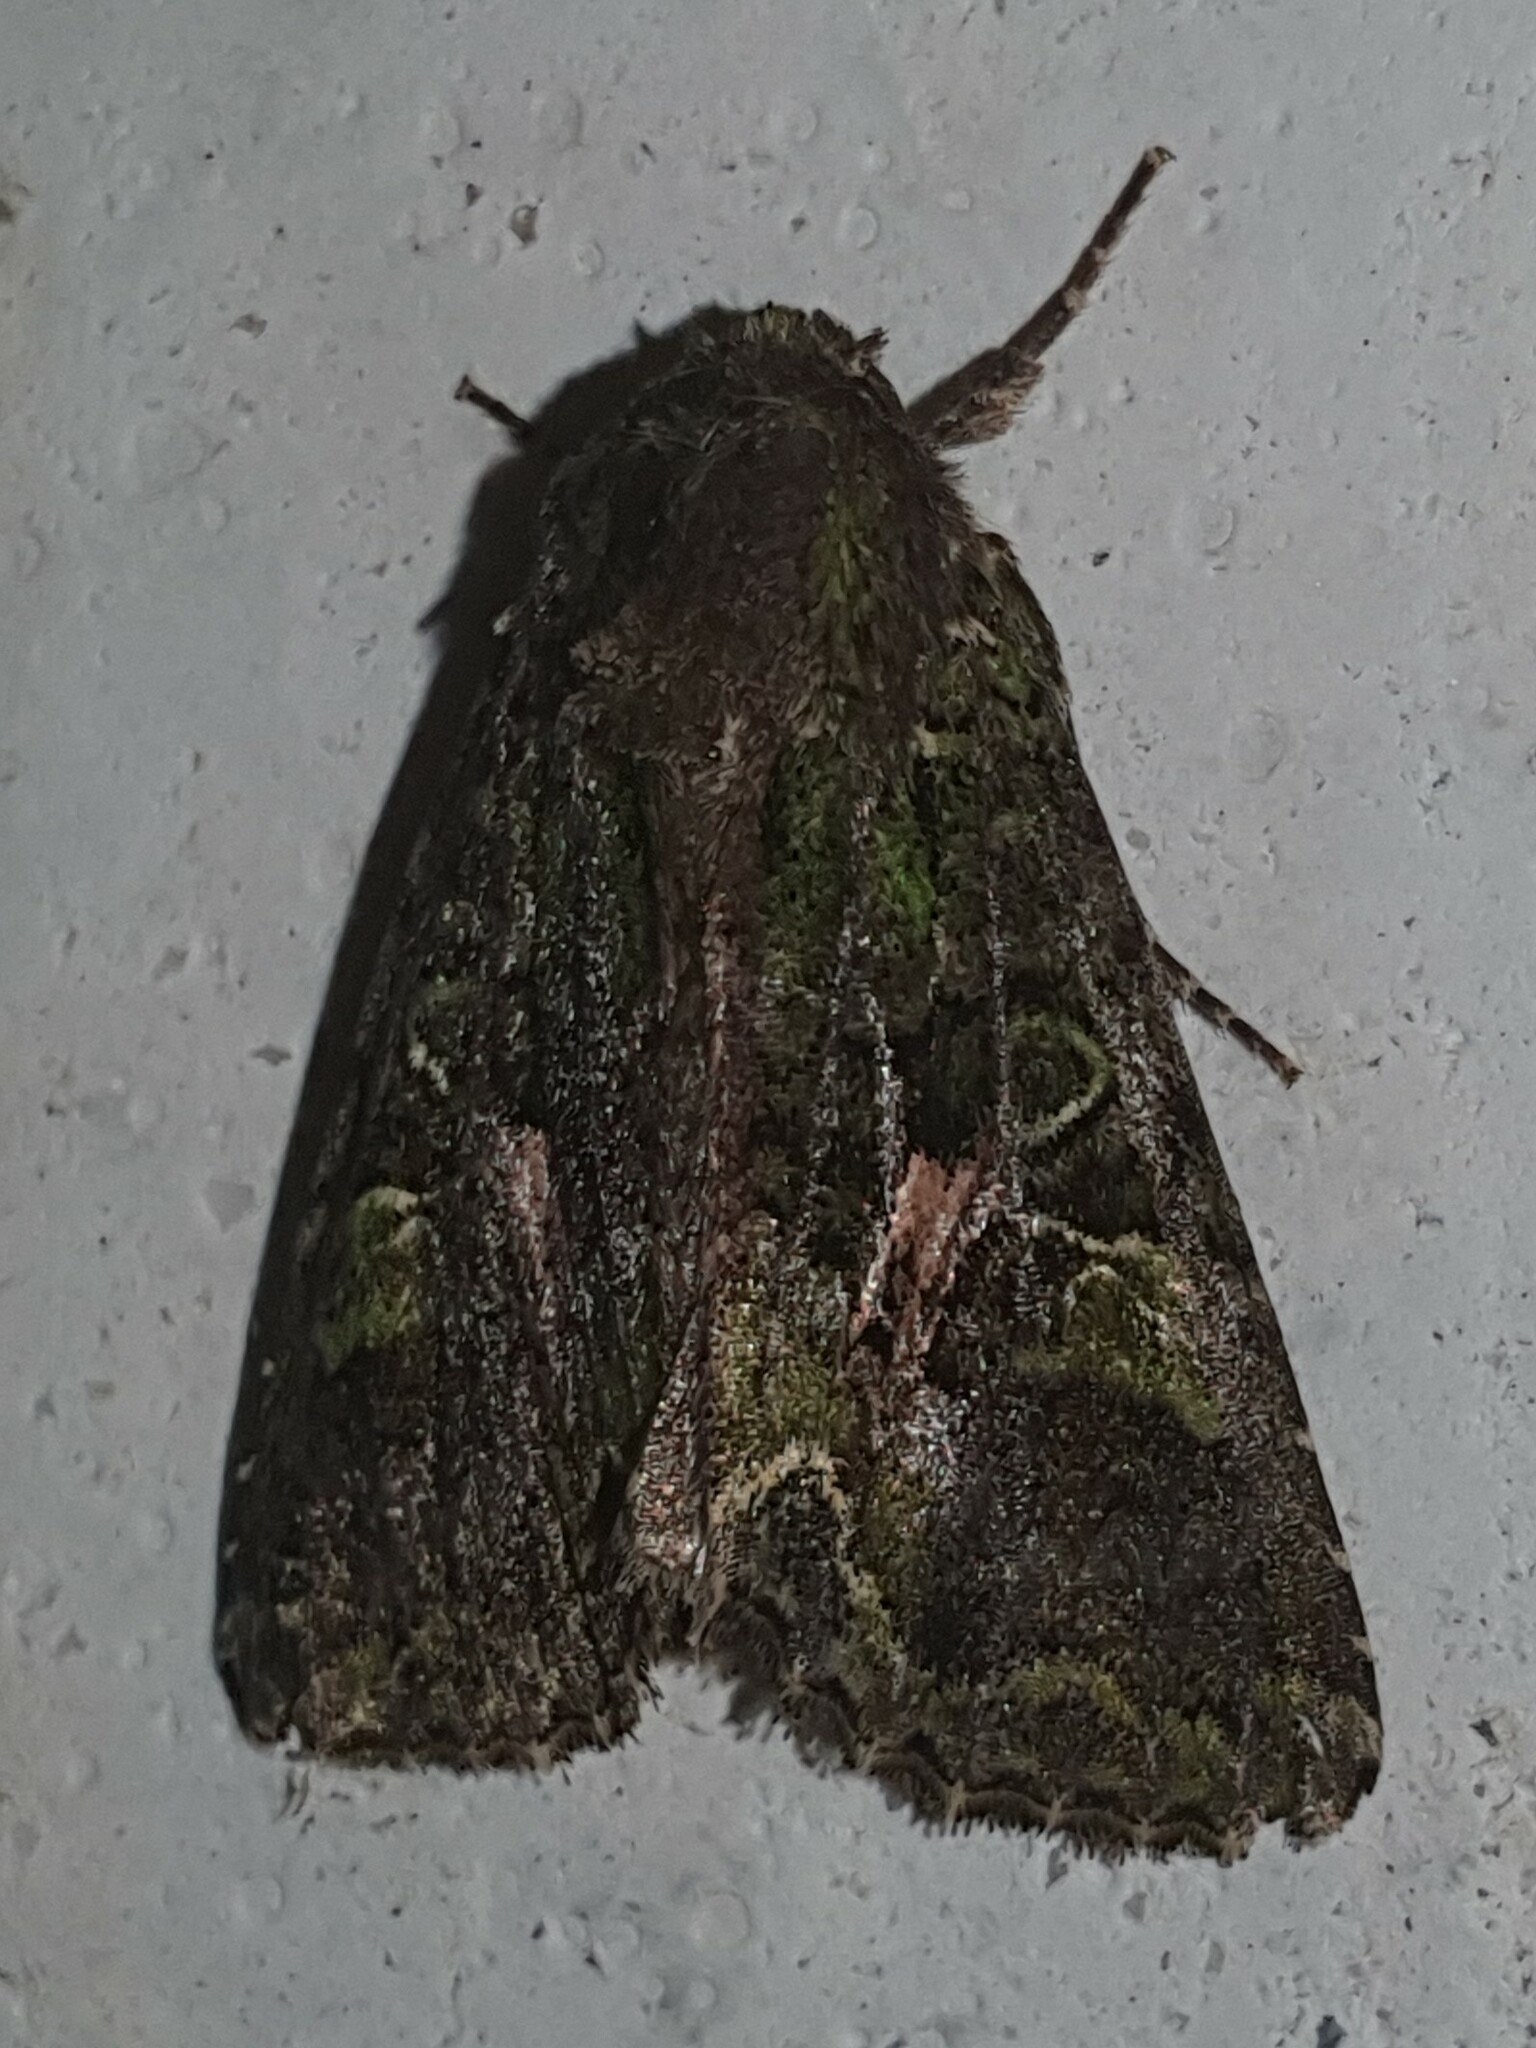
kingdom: Animalia
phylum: Arthropoda
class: Insecta
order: Lepidoptera
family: Noctuidae
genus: Trachea
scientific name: Trachea atriplicis
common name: Orache moth
